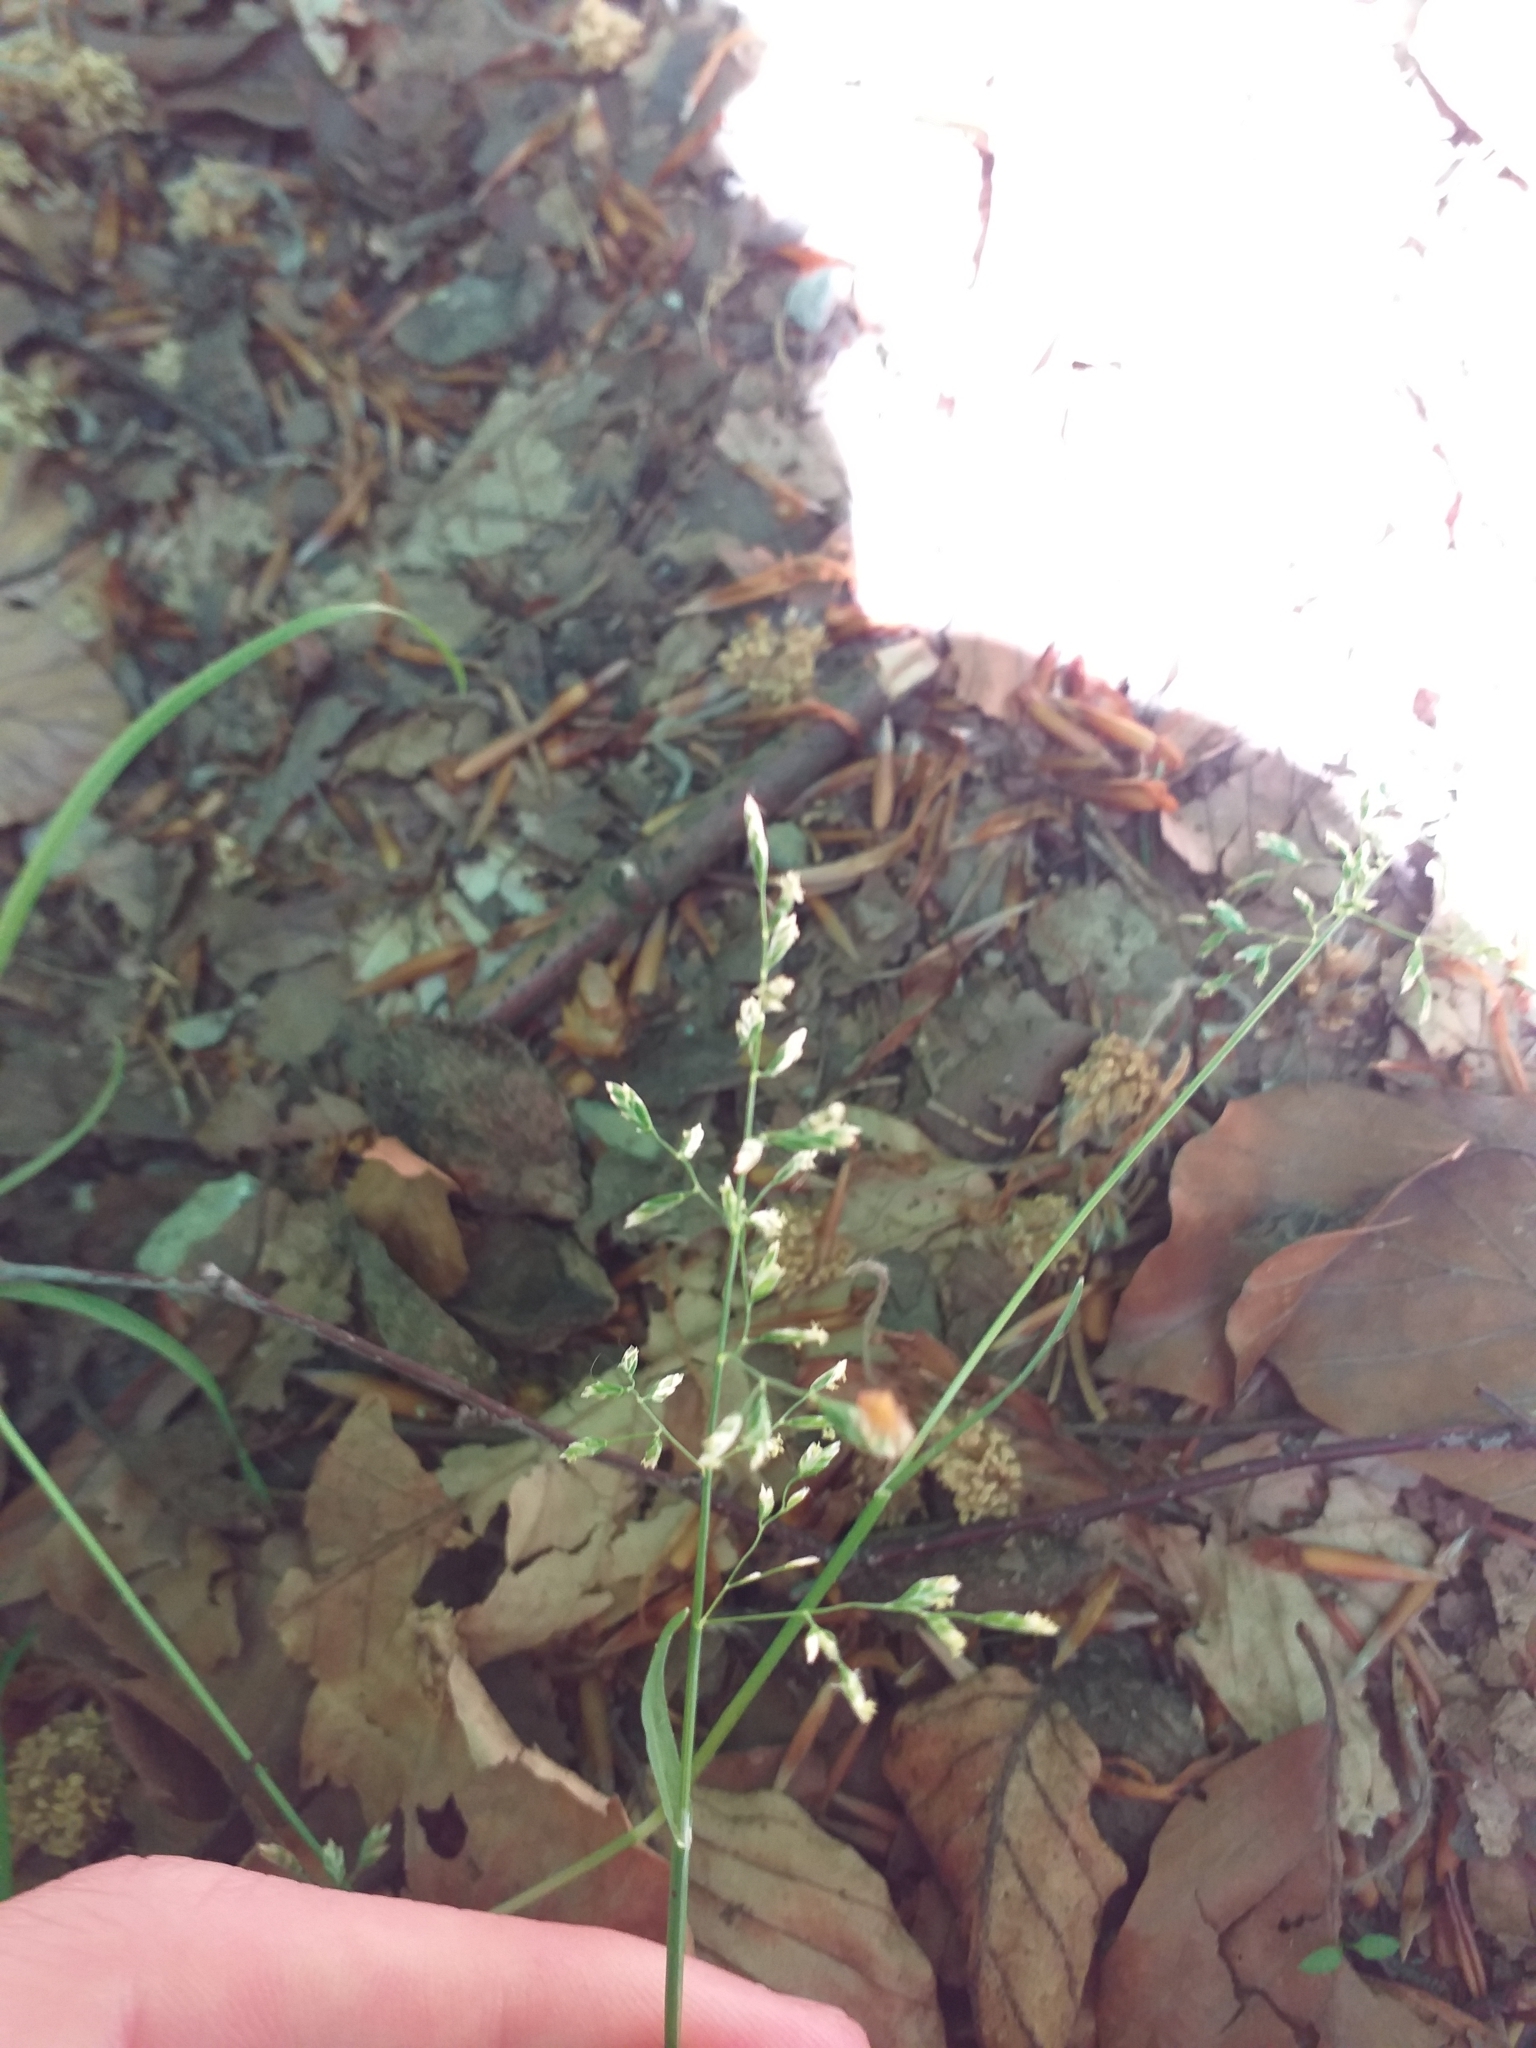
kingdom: Plantae
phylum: Tracheophyta
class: Liliopsida
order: Poales
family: Poaceae
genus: Poa
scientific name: Poa annua
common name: Annual bluegrass
